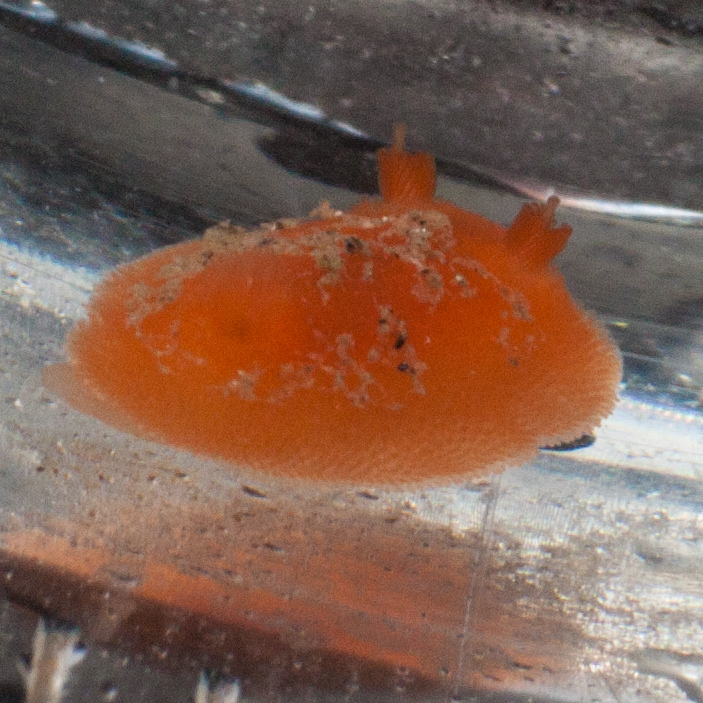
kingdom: Animalia
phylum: Mollusca
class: Gastropoda
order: Nudibranchia
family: Discodorididae
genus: Rostanga
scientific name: Rostanga pulchra
